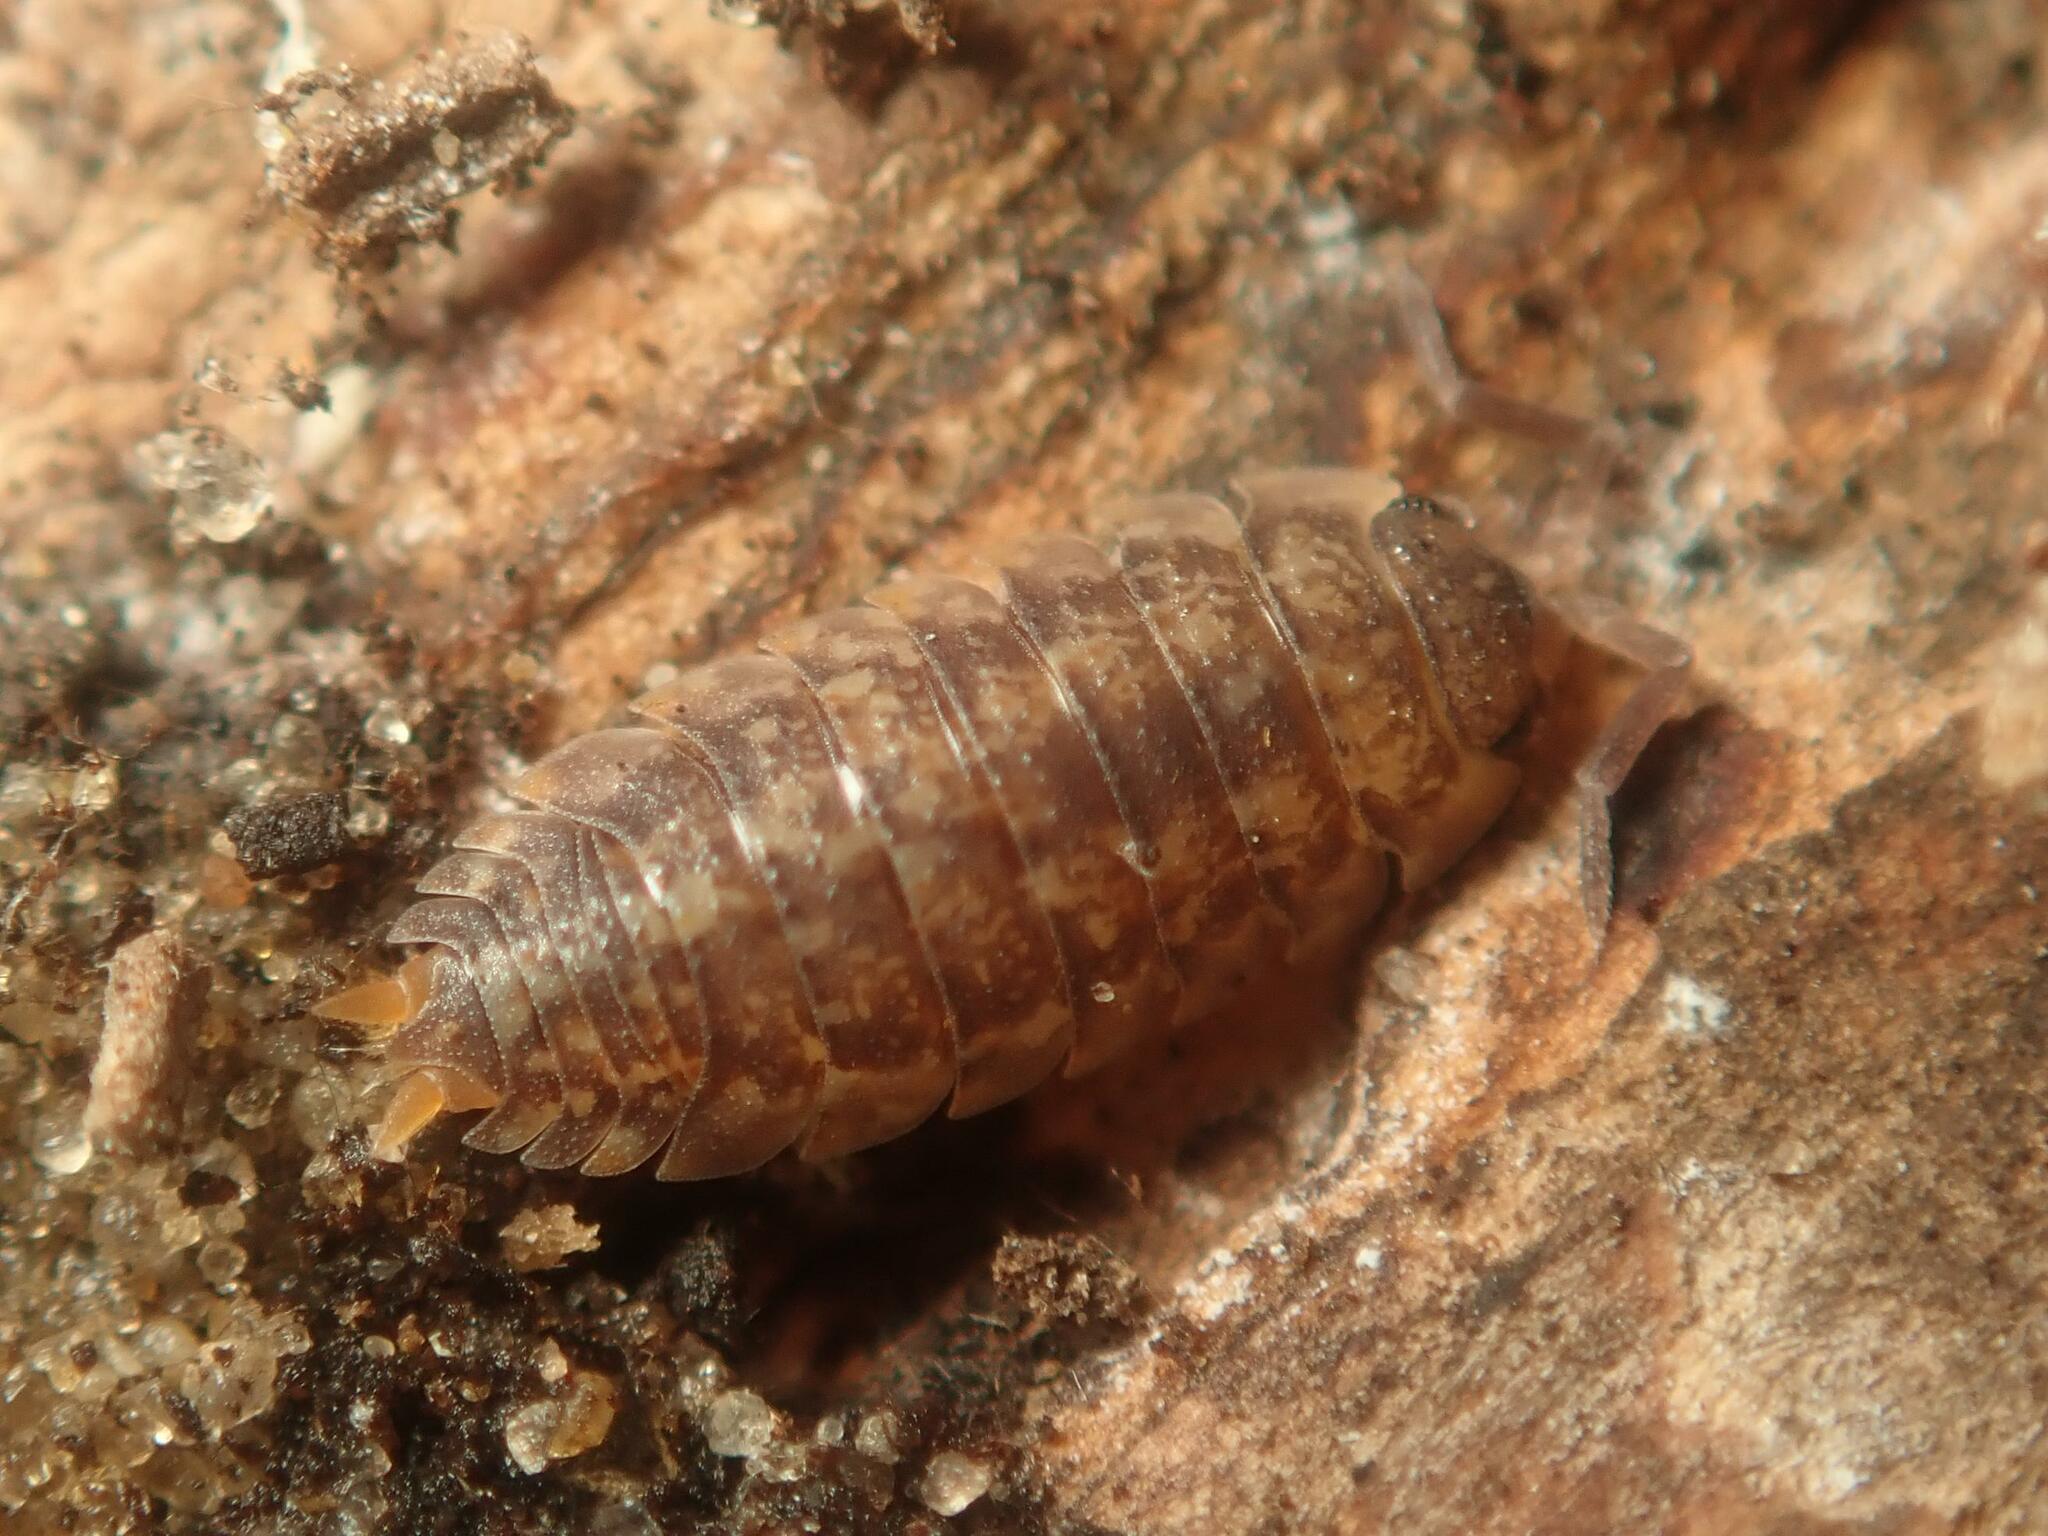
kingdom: Animalia
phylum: Arthropoda
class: Malacostraca
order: Isopoda
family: Porcellionidae
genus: Porcellio
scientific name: Porcellio scaber
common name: Common rough woodlouse
